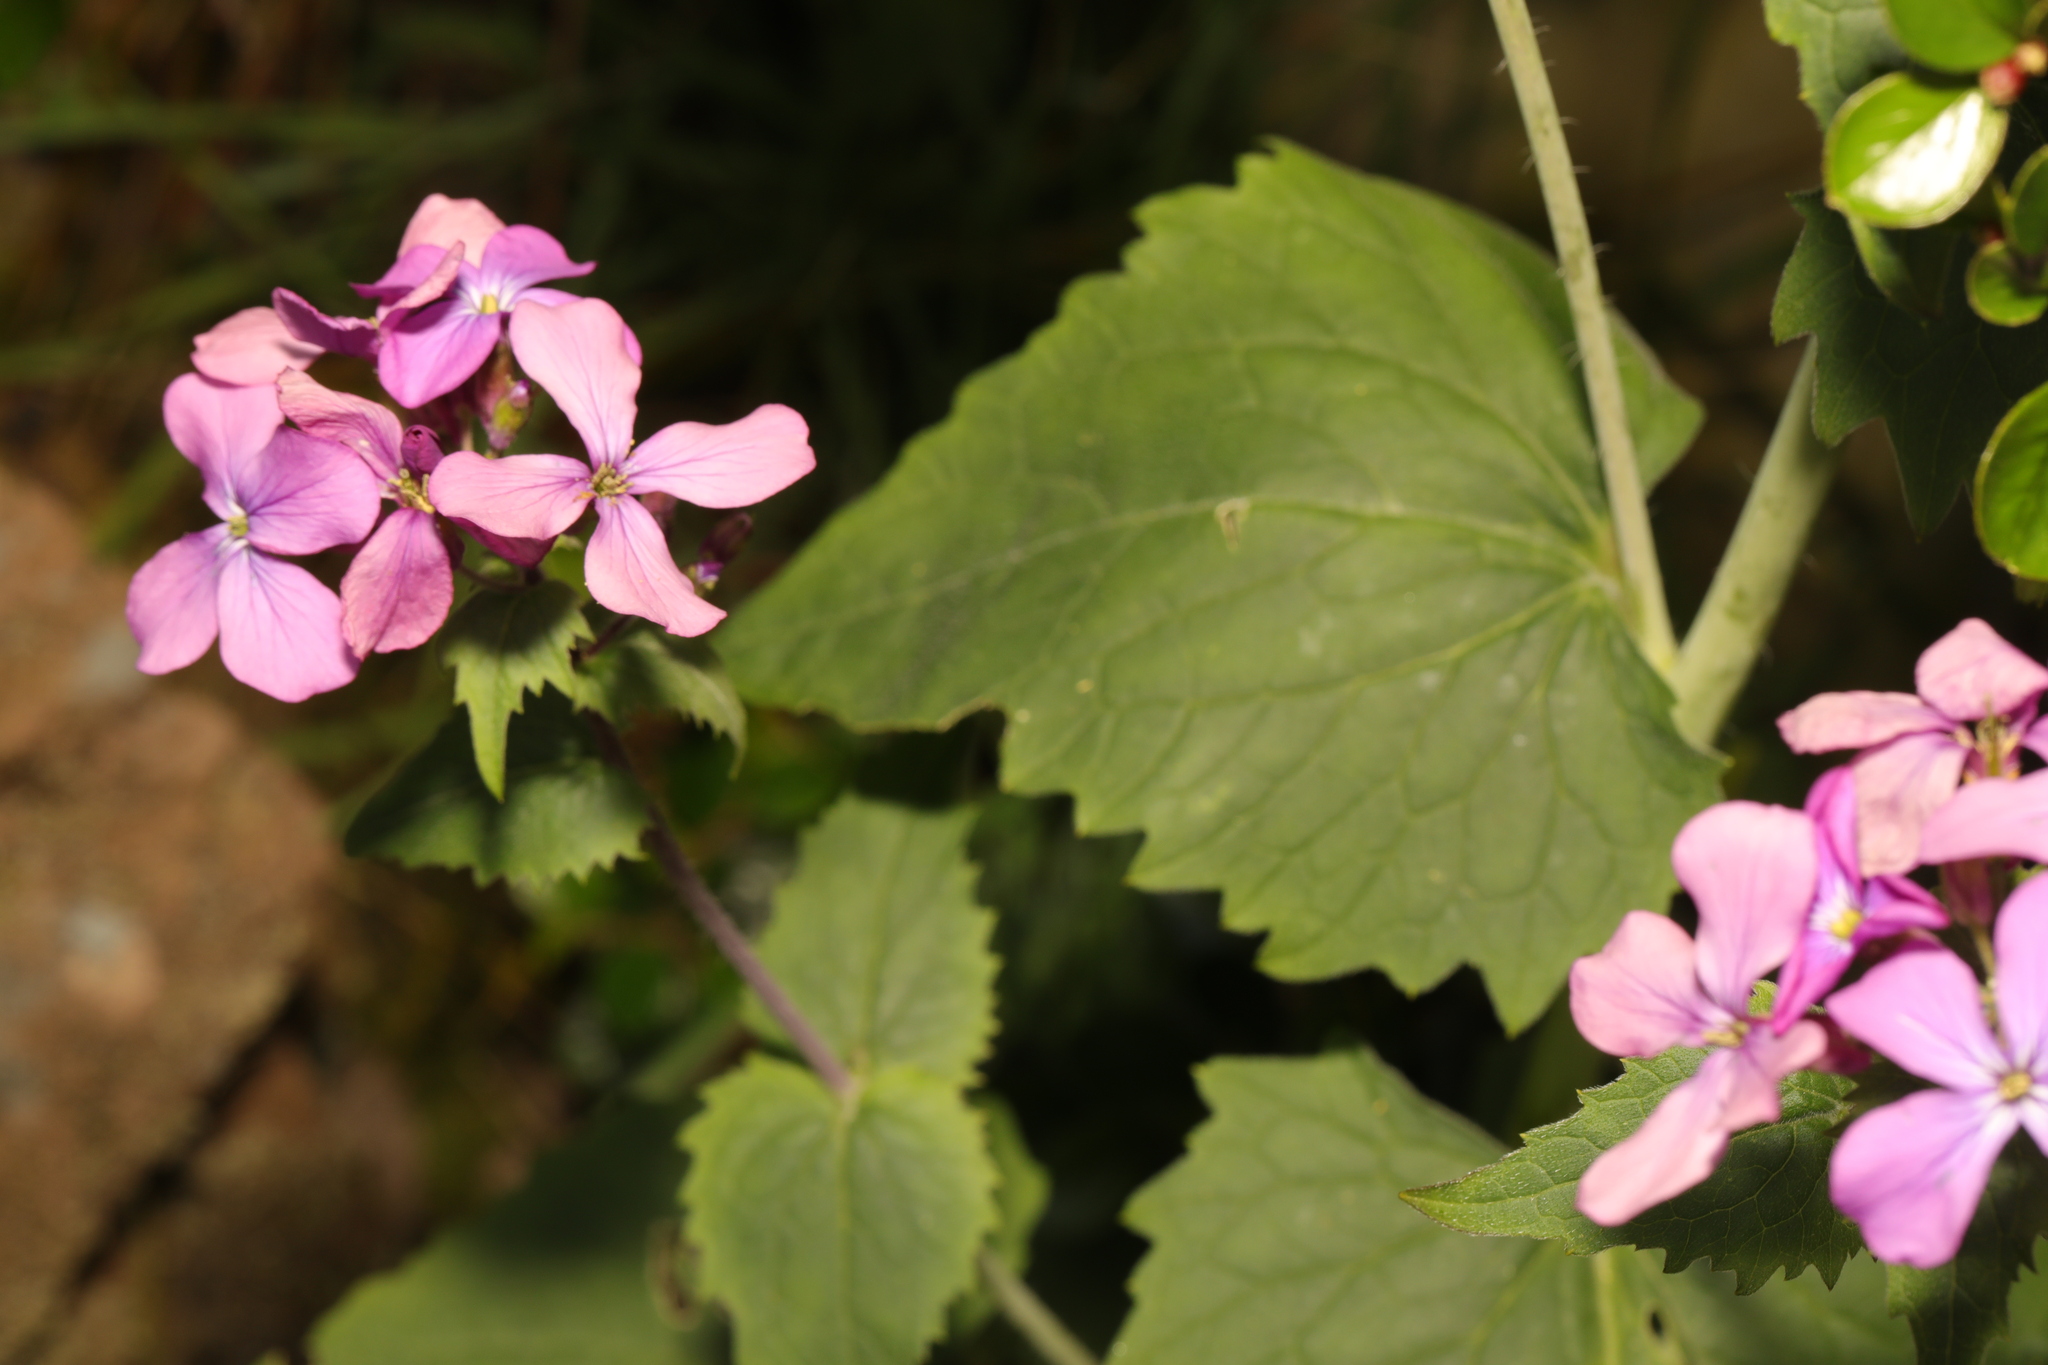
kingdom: Plantae
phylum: Tracheophyta
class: Magnoliopsida
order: Brassicales
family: Brassicaceae
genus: Lunaria
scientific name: Lunaria annua
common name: Honesty
